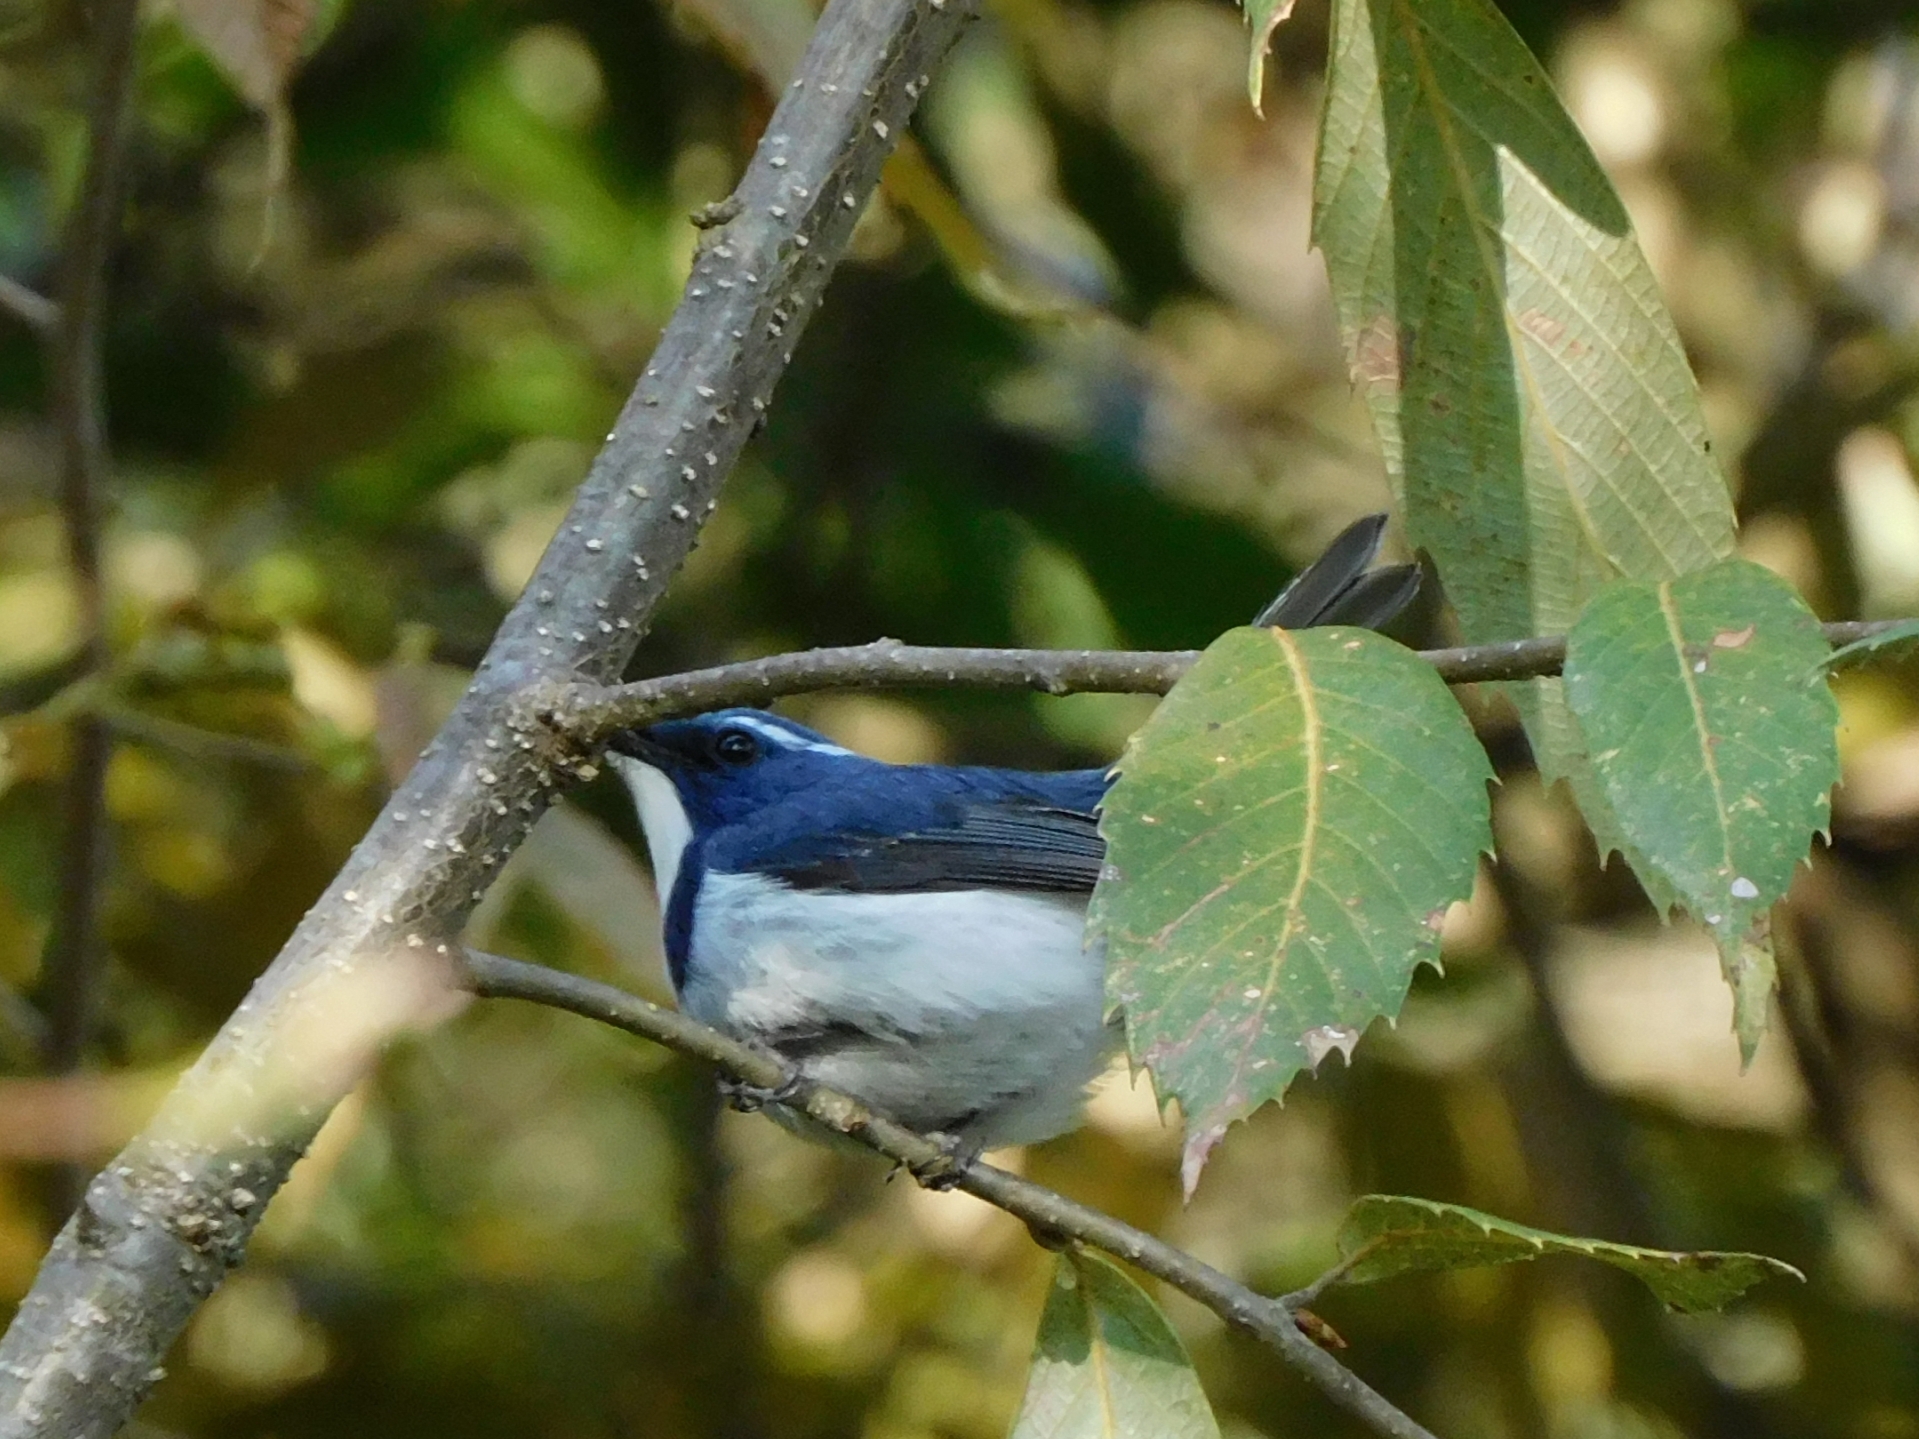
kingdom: Animalia
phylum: Chordata
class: Aves
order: Passeriformes
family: Muscicapidae
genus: Ficedula
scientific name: Ficedula superciliaris
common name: Ultramarine flycatcher
